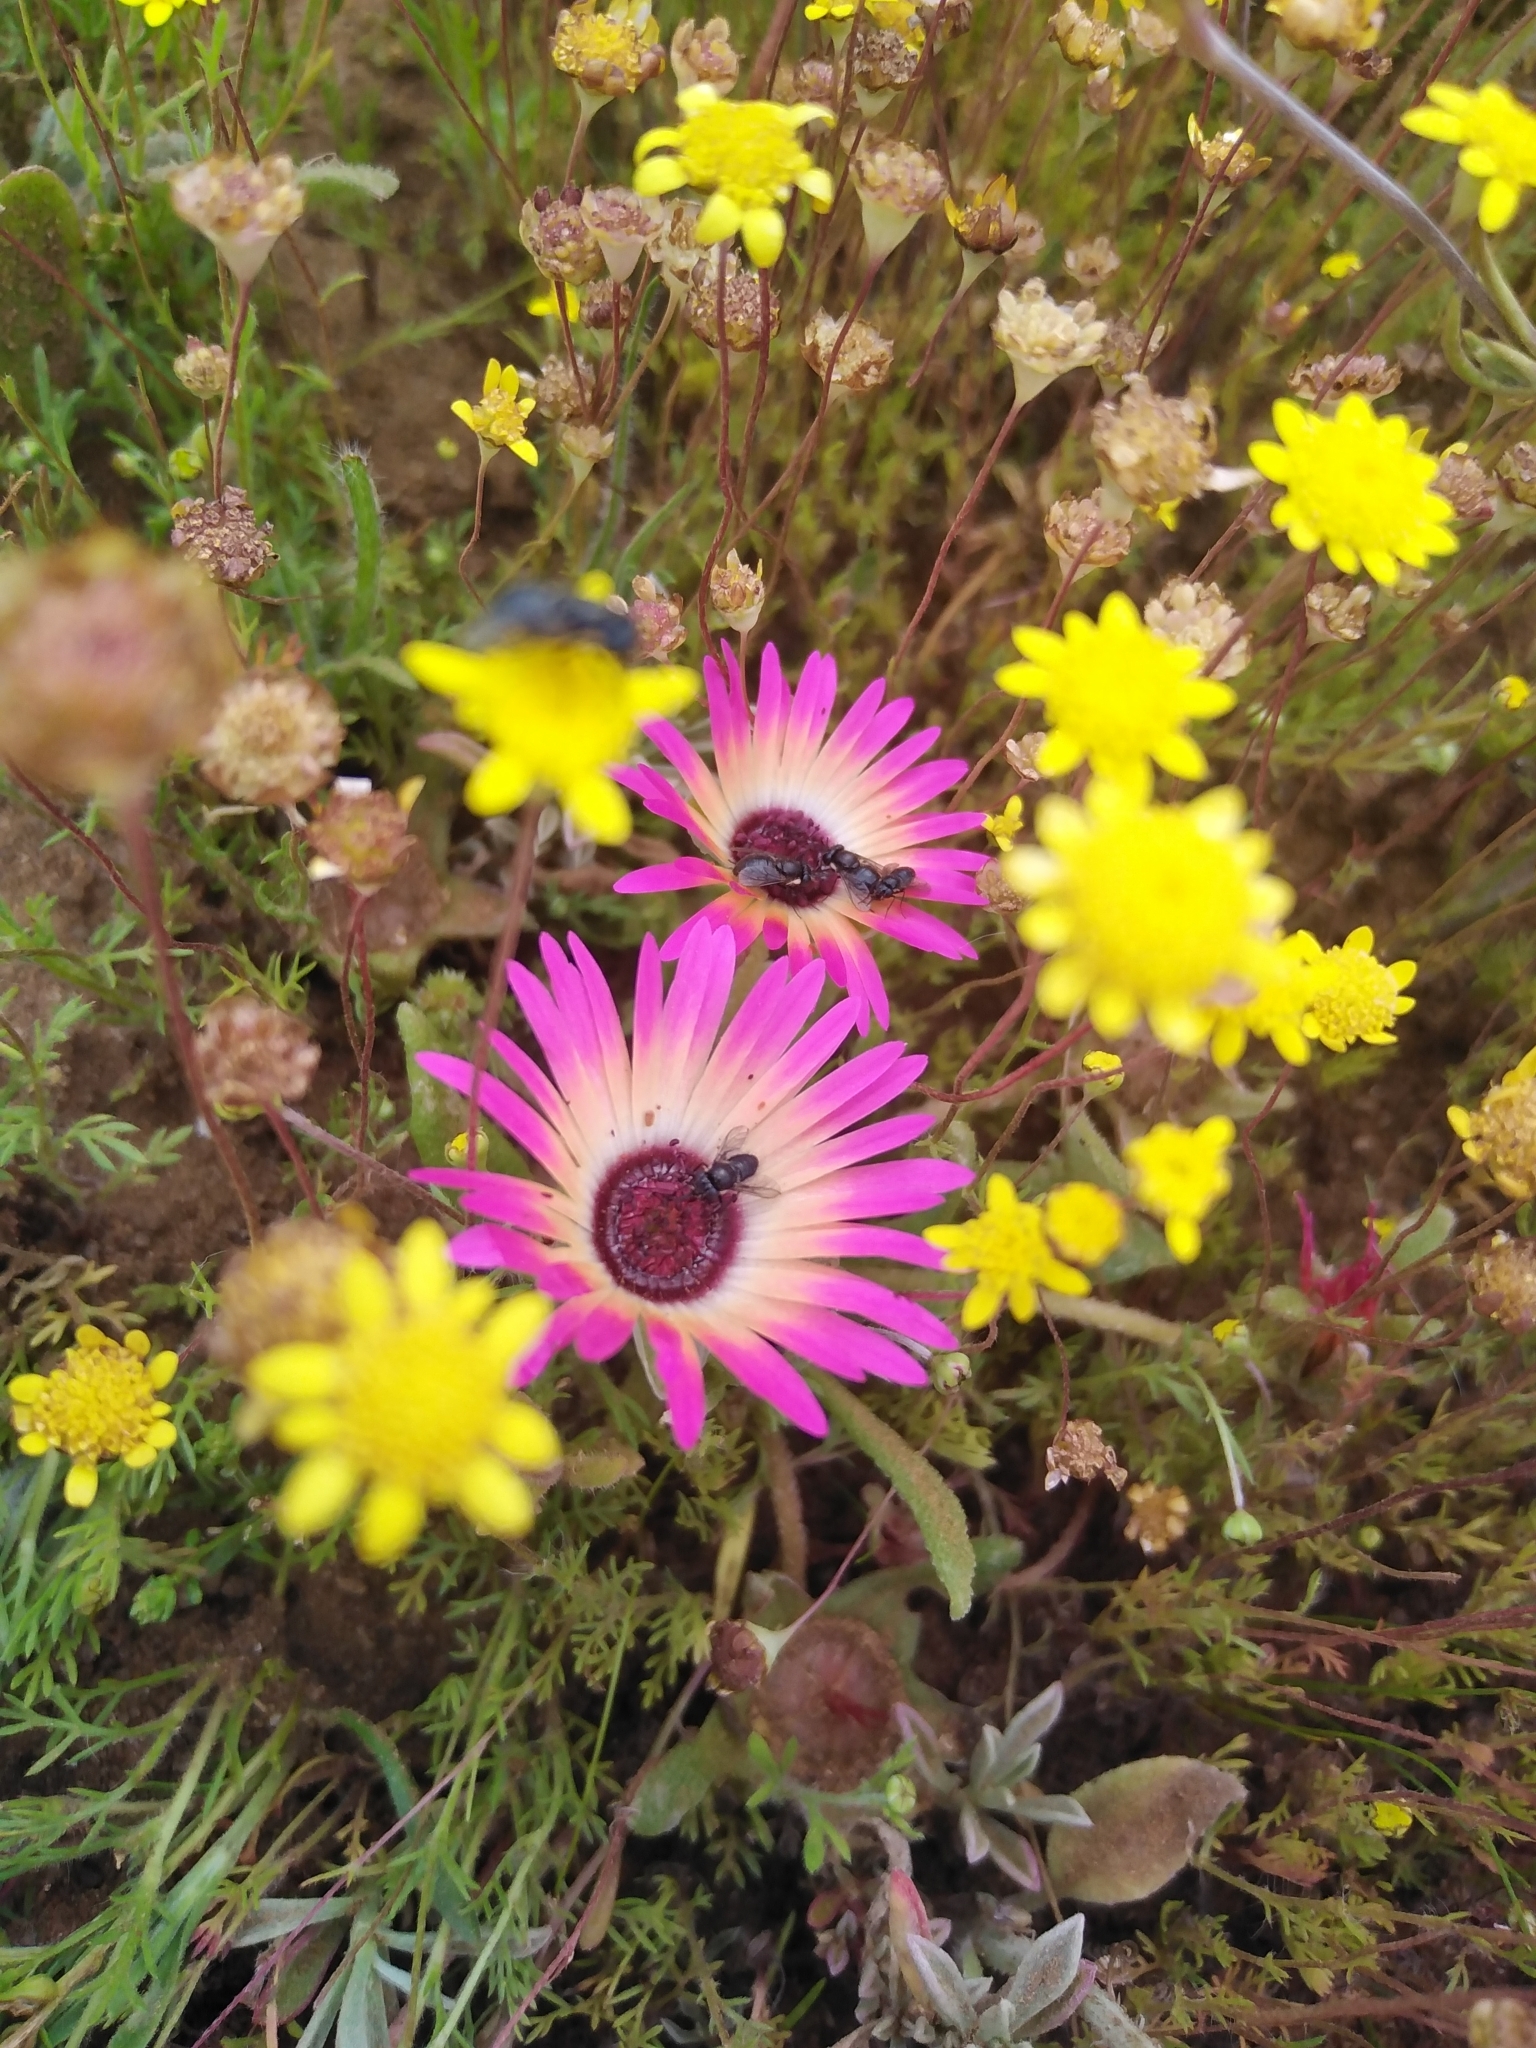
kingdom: Plantae
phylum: Tracheophyta
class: Magnoliopsida
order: Caryophyllales
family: Aizoaceae
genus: Cleretum
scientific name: Cleretum bellidiforme
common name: Livingstone daisy
